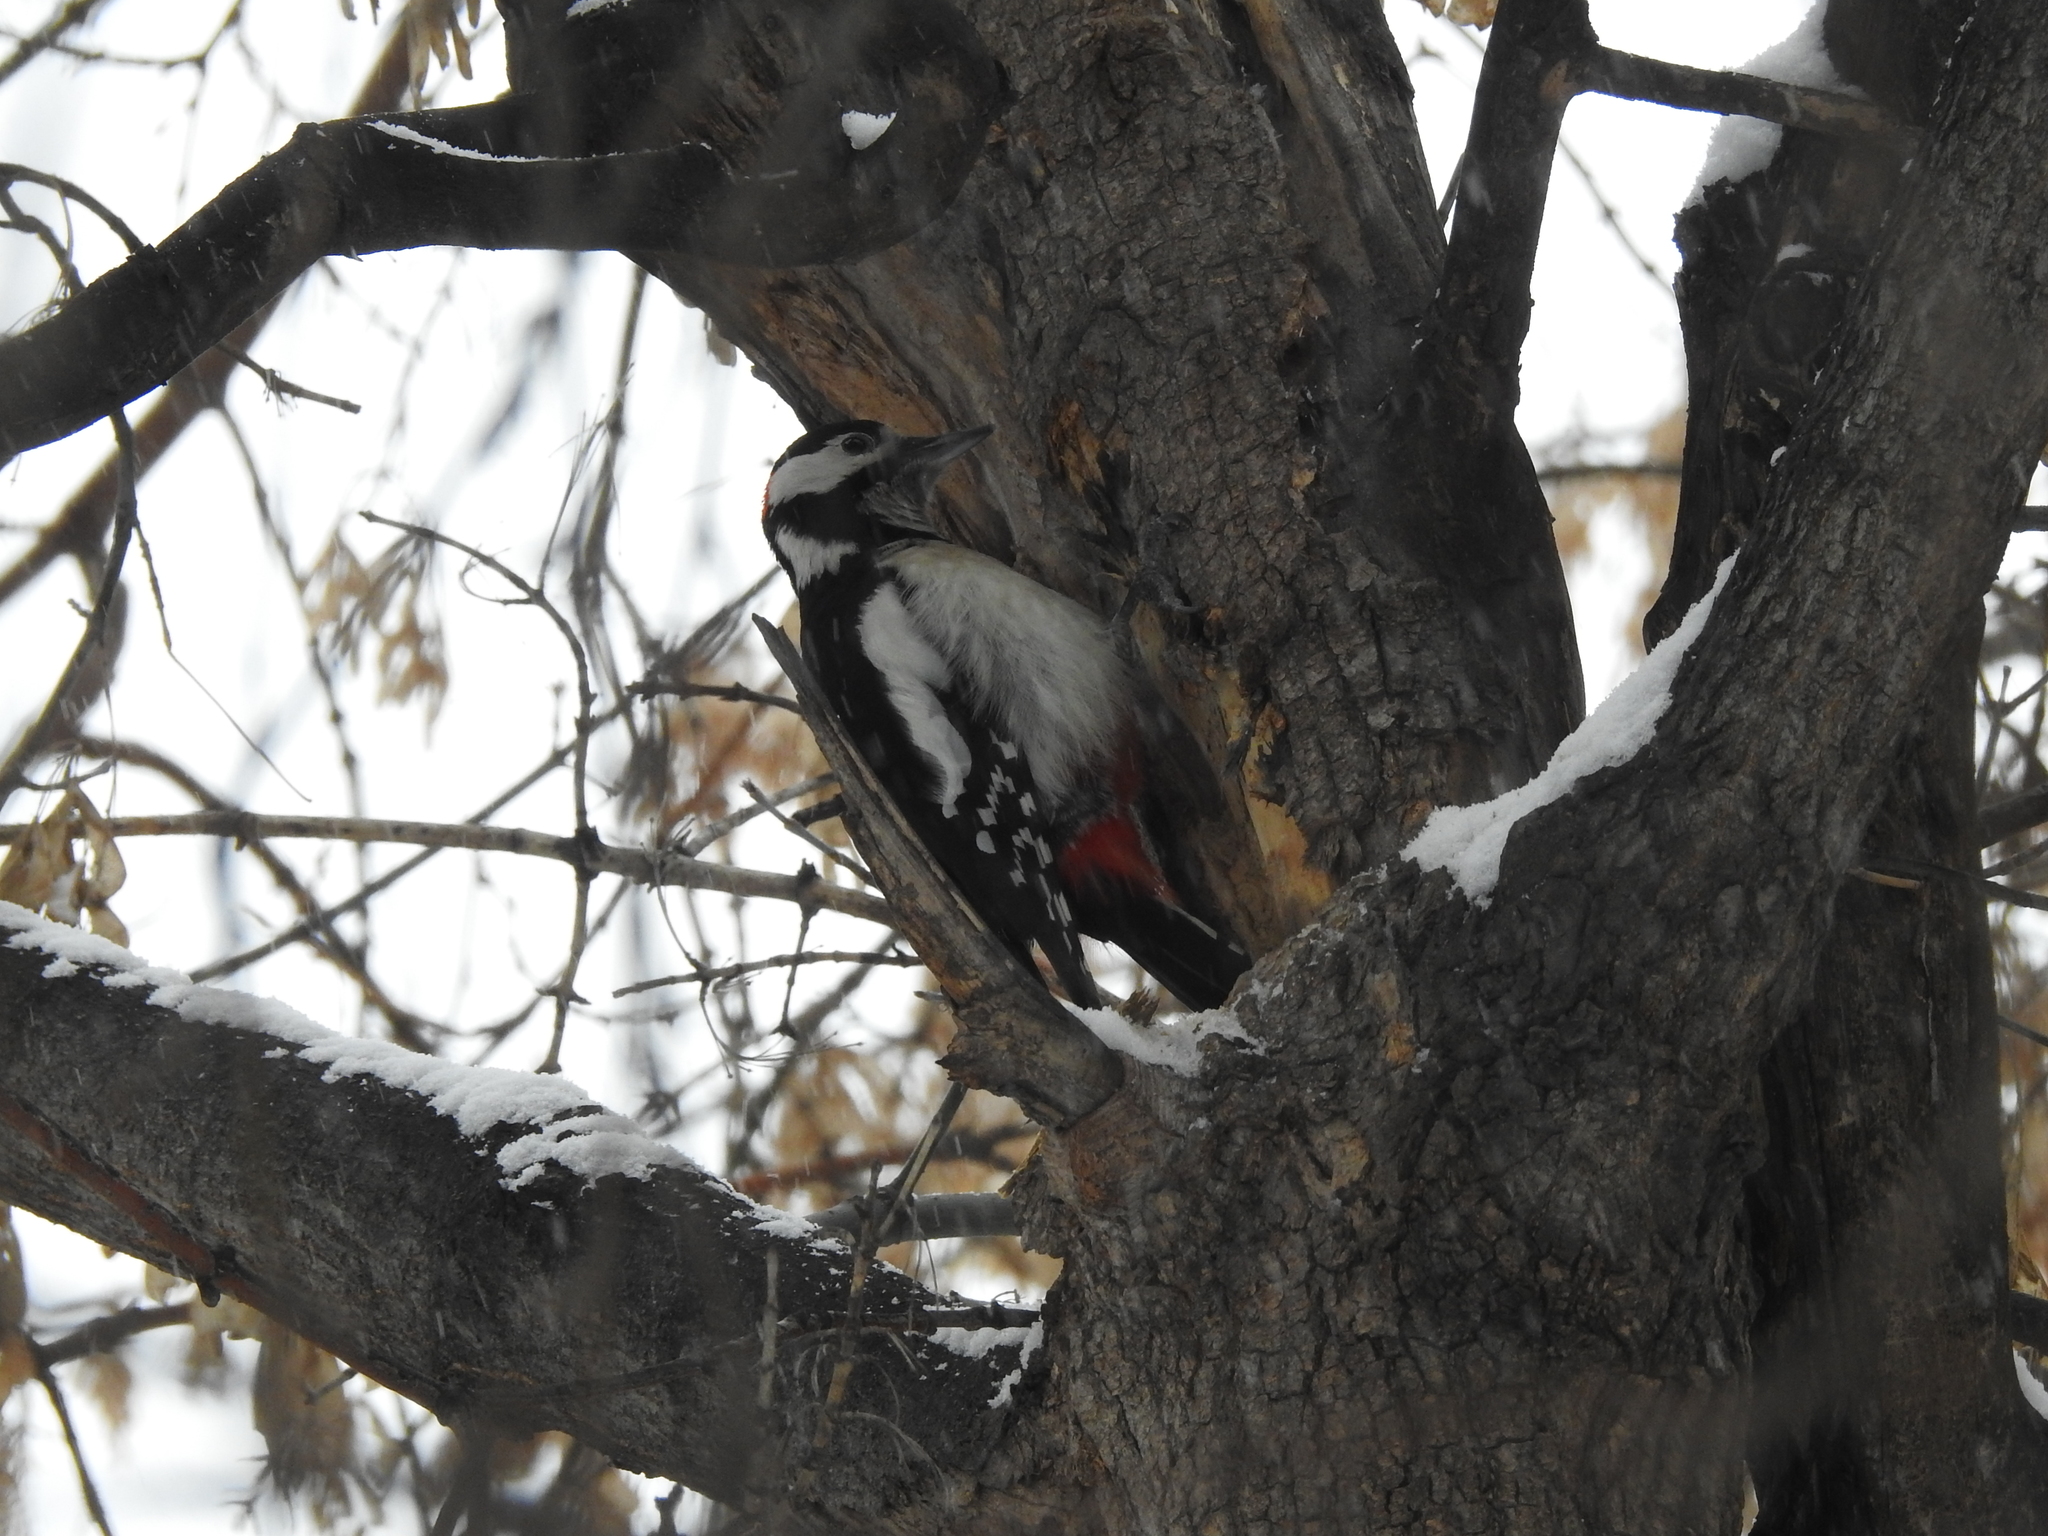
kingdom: Animalia
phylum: Chordata
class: Aves
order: Piciformes
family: Picidae
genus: Dendrocopos
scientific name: Dendrocopos major
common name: Great spotted woodpecker
